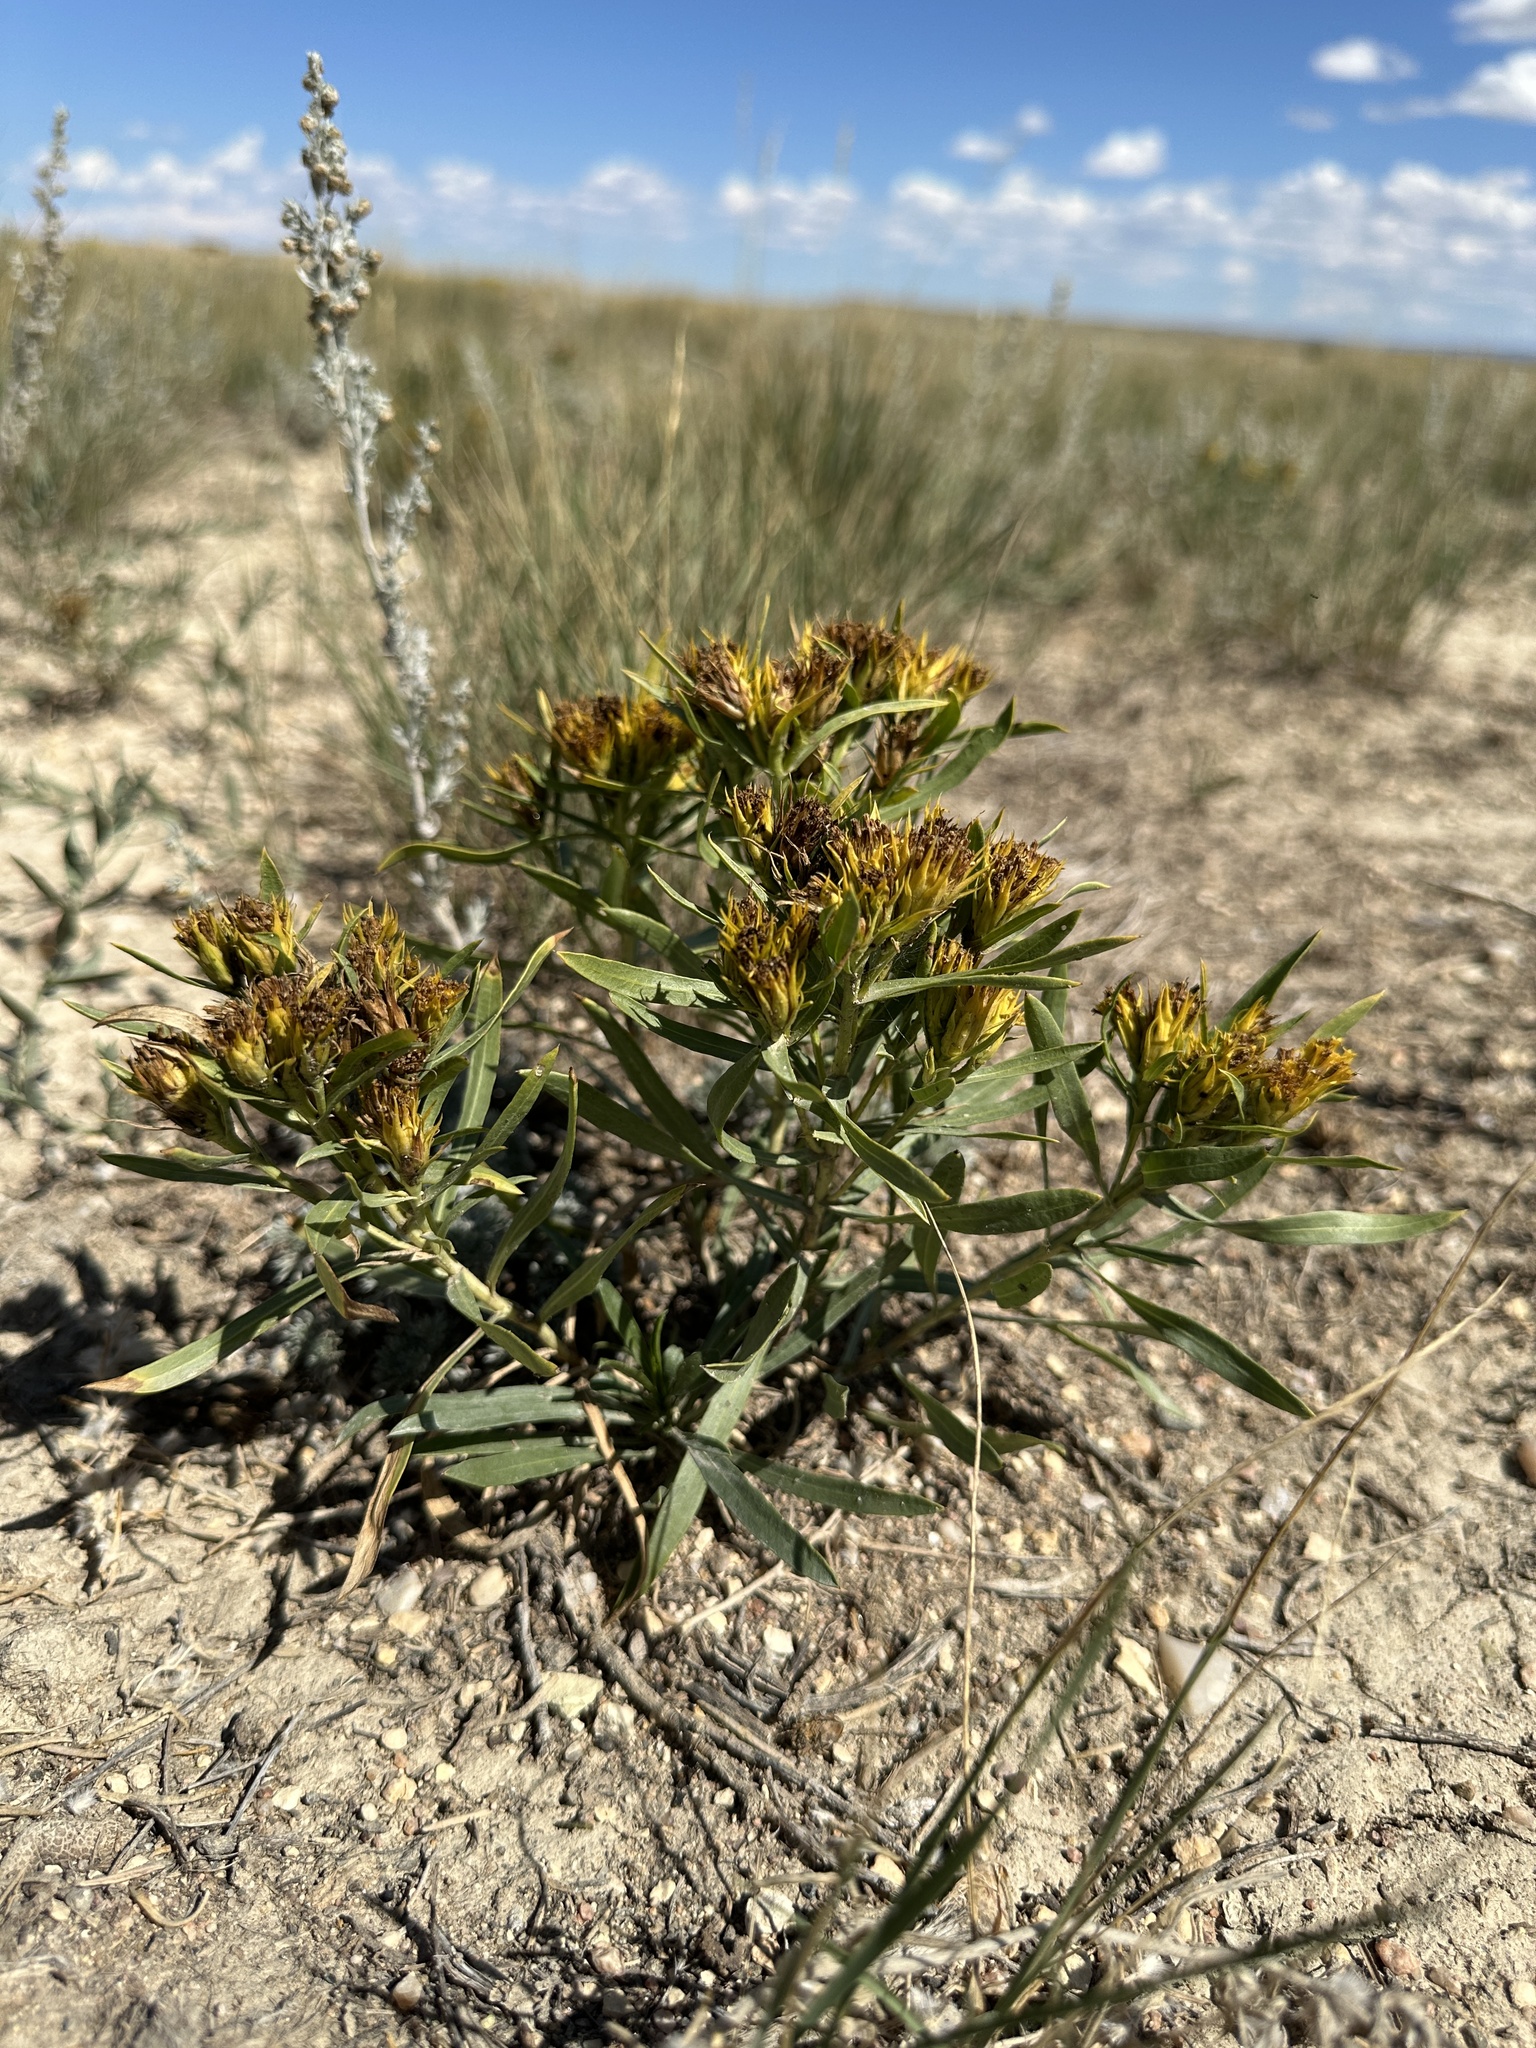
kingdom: Plantae
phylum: Tracheophyta
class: Magnoliopsida
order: Asterales
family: Asteraceae
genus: Oonopsis
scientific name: Oonopsis wardii
